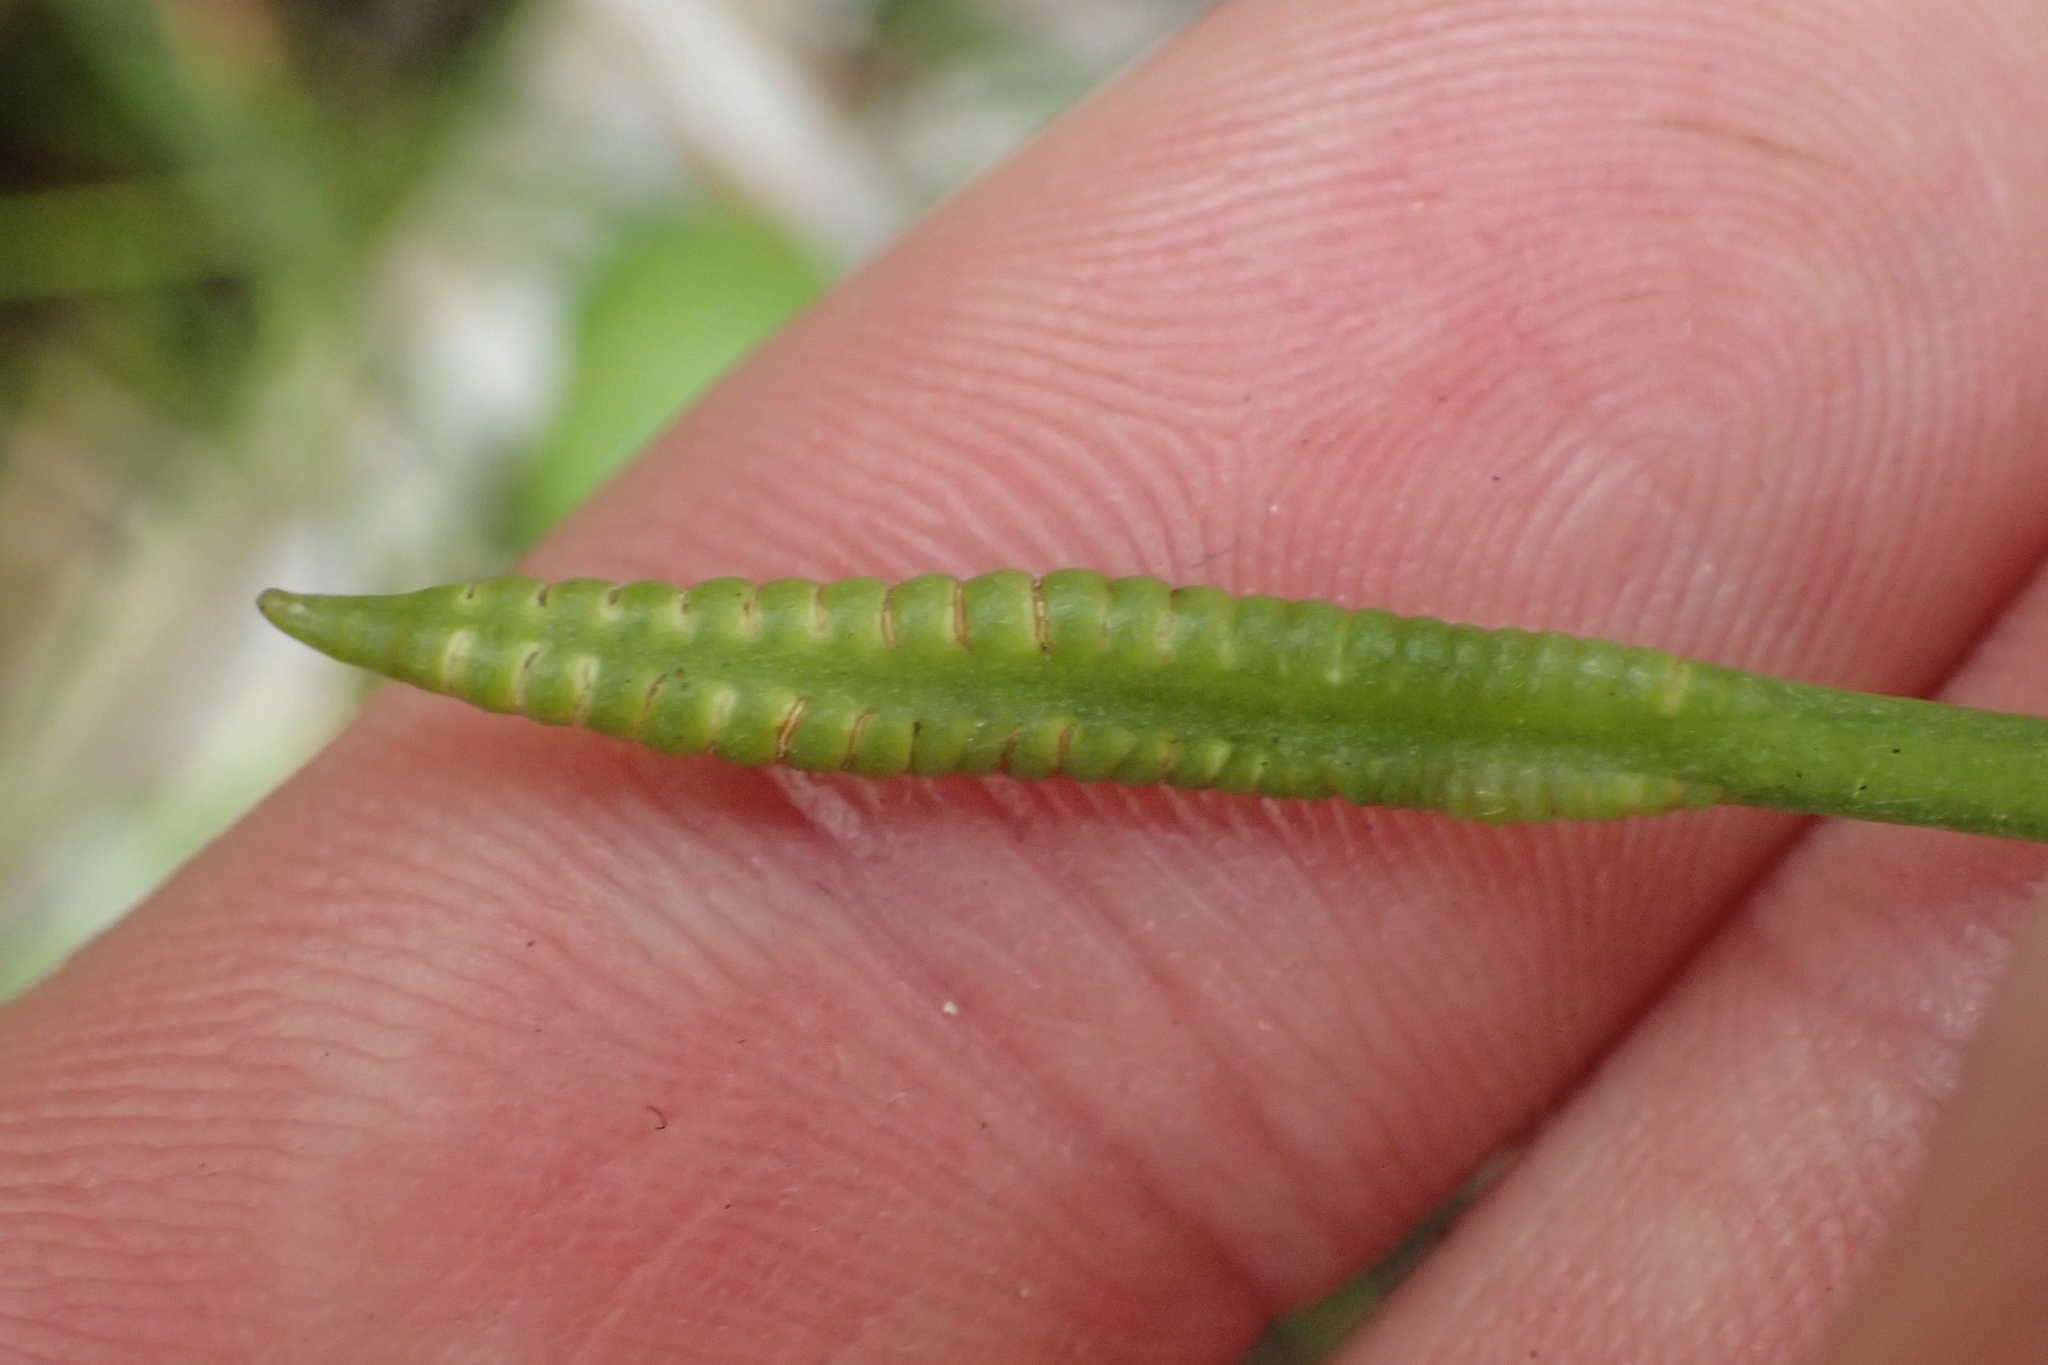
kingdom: Plantae
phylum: Tracheophyta
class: Polypodiopsida
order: Ophioglossales
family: Ophioglossaceae
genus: Ophioglossum
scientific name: Ophioglossum petiolatum
